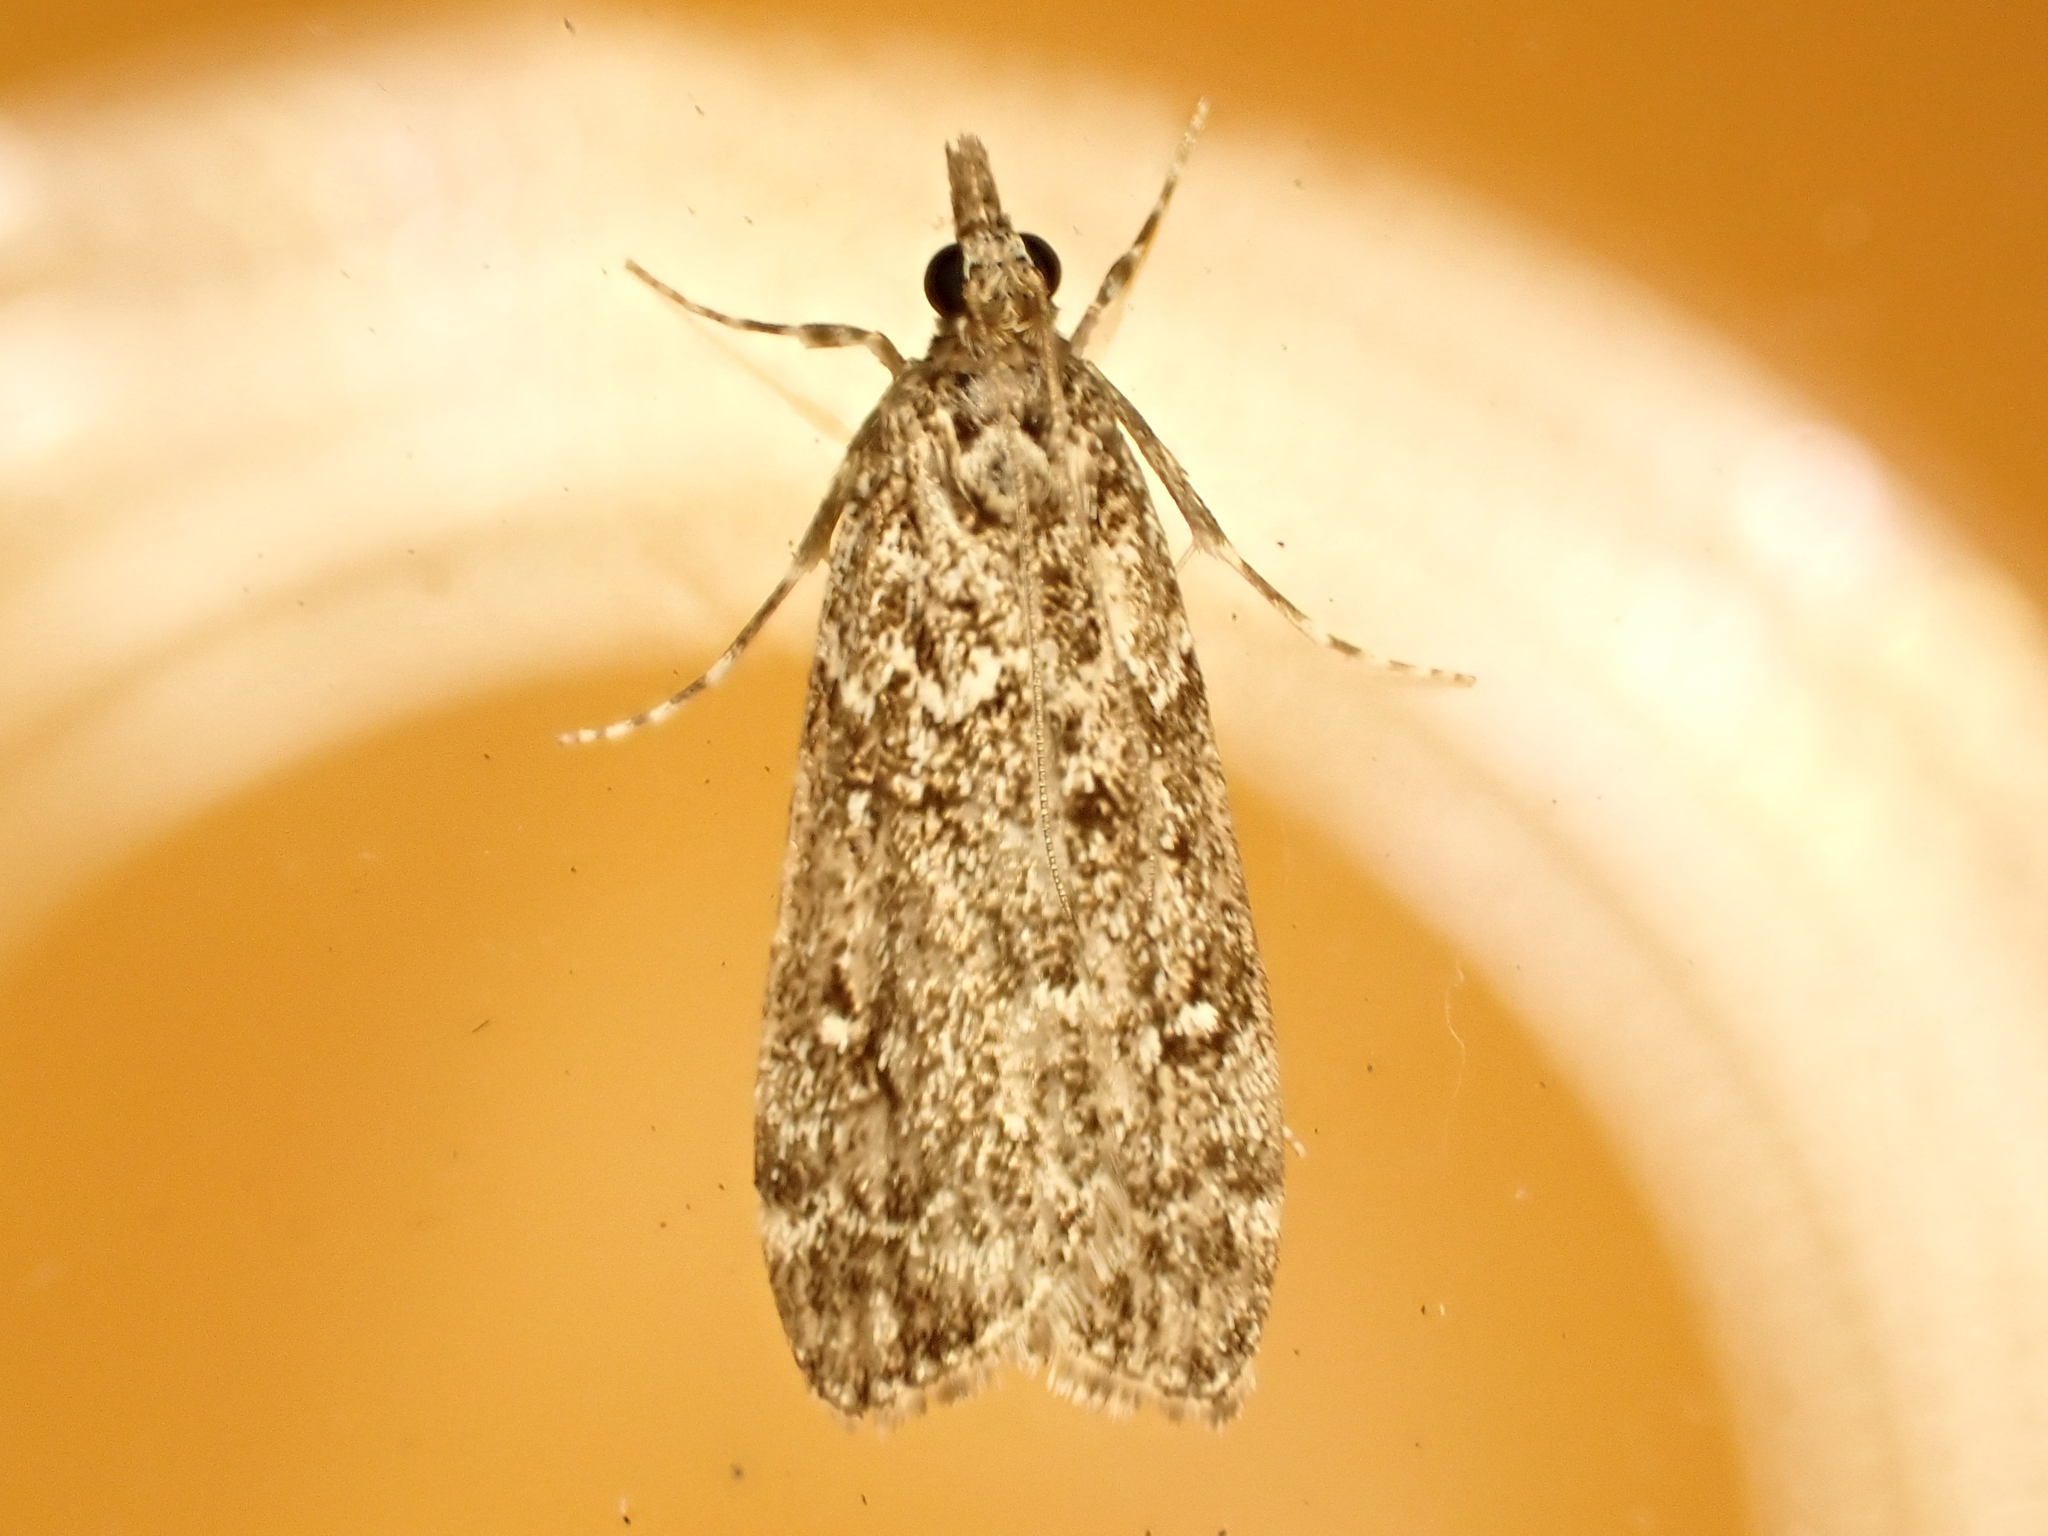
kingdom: Animalia
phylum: Arthropoda
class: Insecta
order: Lepidoptera
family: Crambidae
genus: Eudonia
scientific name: Eudonia philerga
